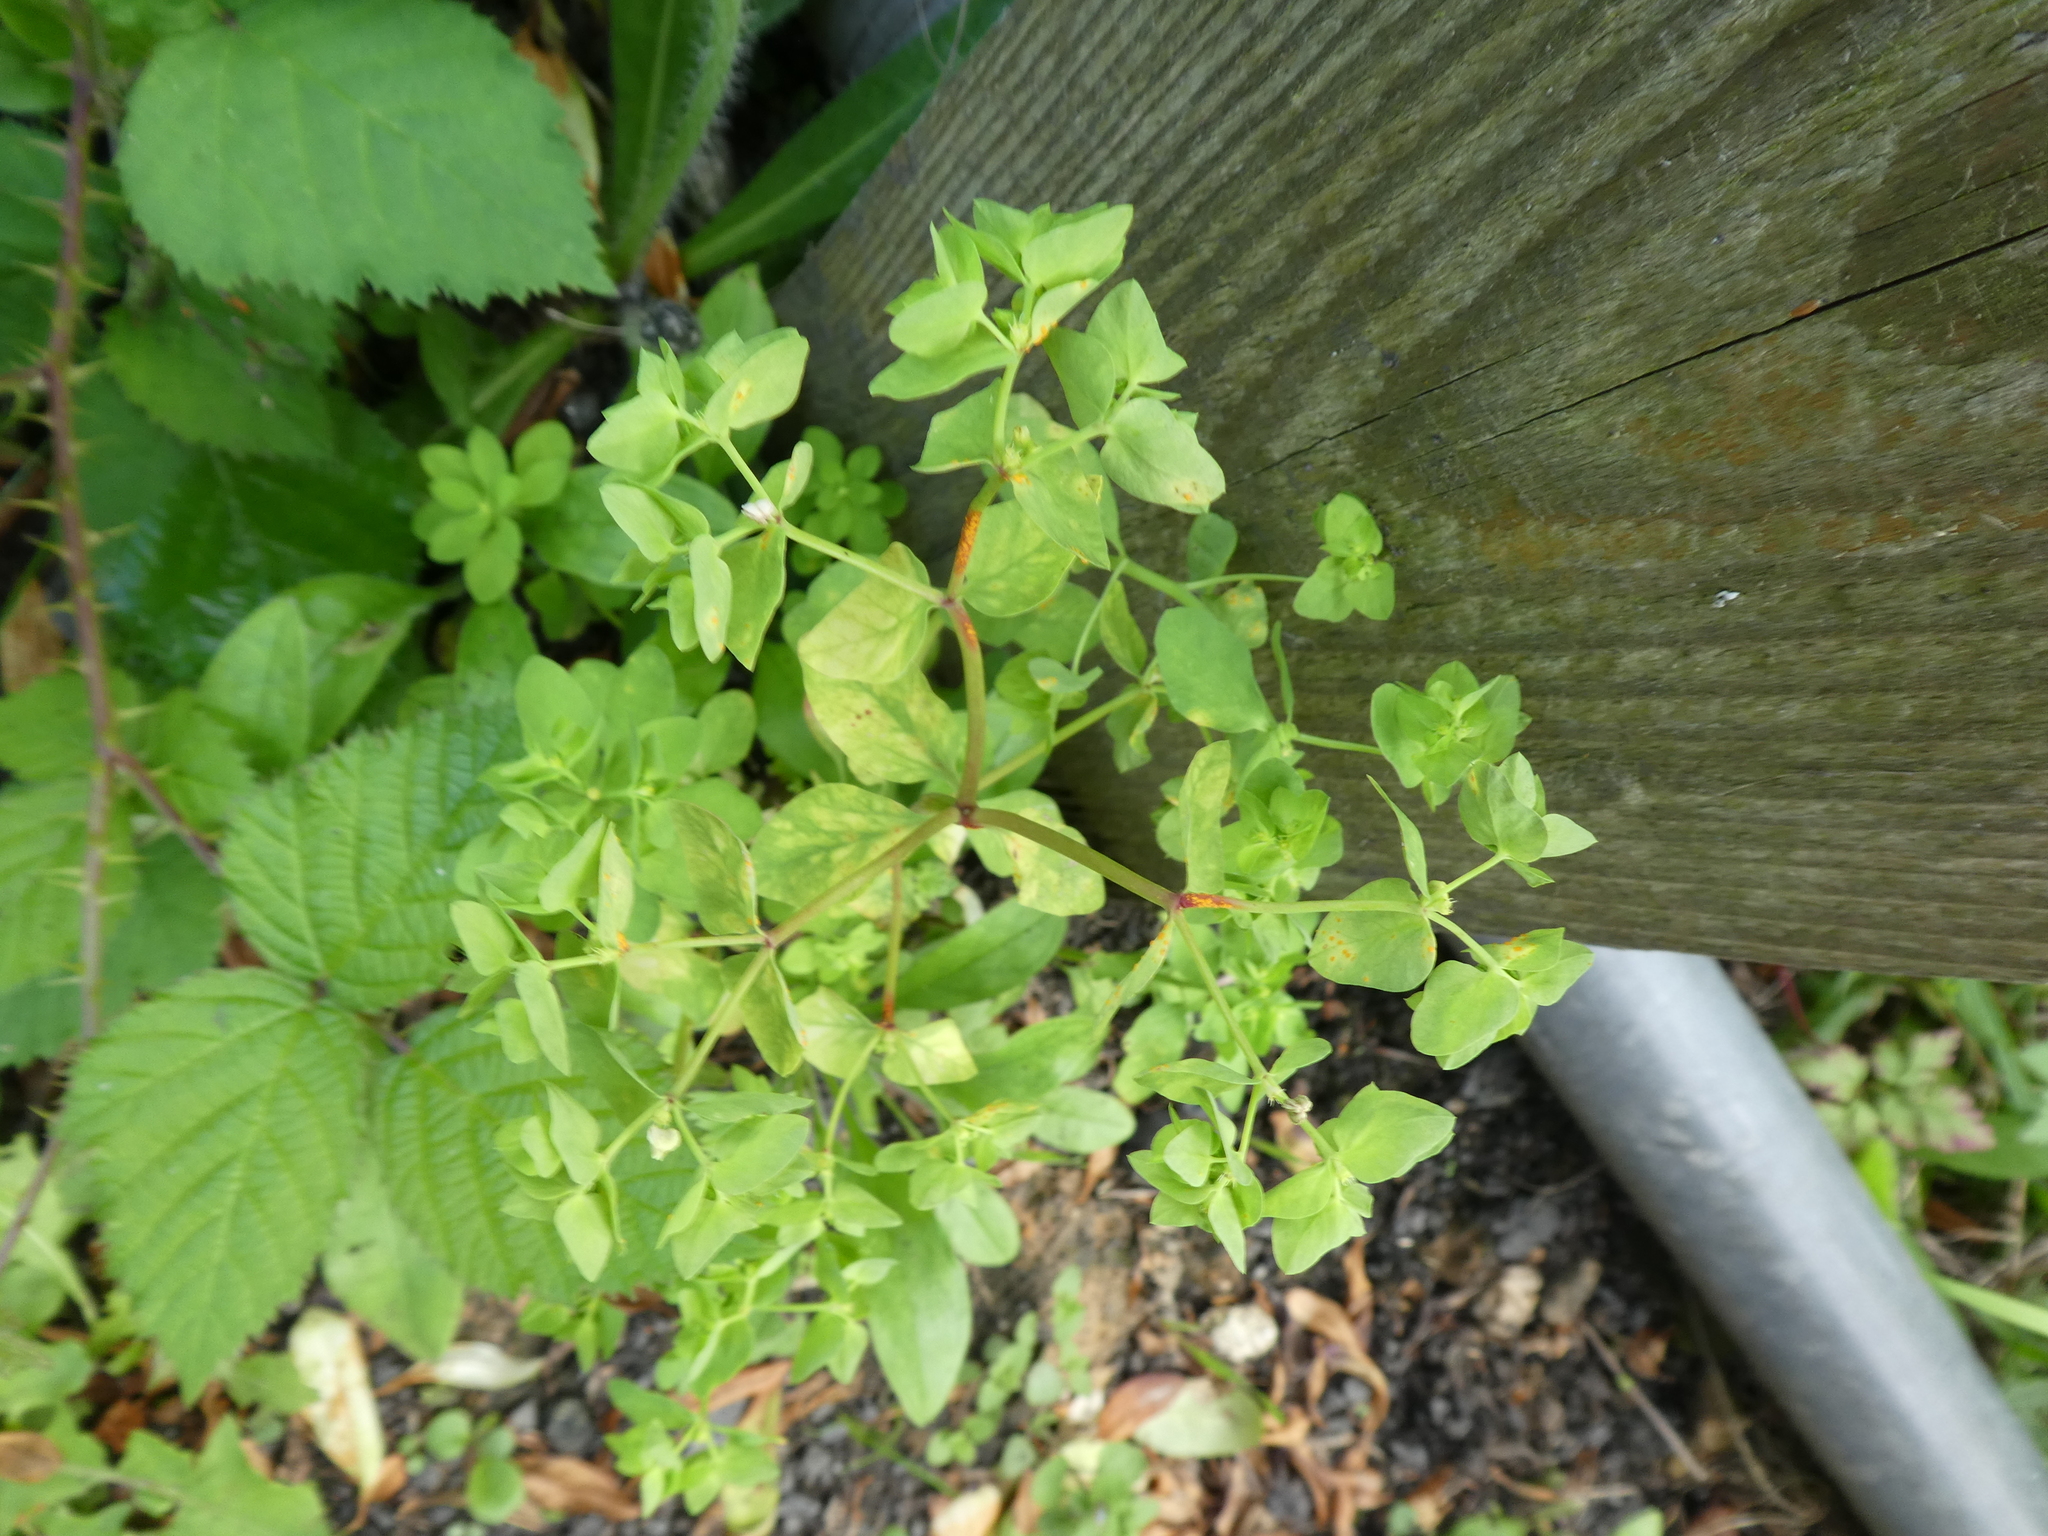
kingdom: Plantae
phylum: Tracheophyta
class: Magnoliopsida
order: Malpighiales
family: Euphorbiaceae
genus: Euphorbia
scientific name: Euphorbia peplus
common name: Petty spurge
